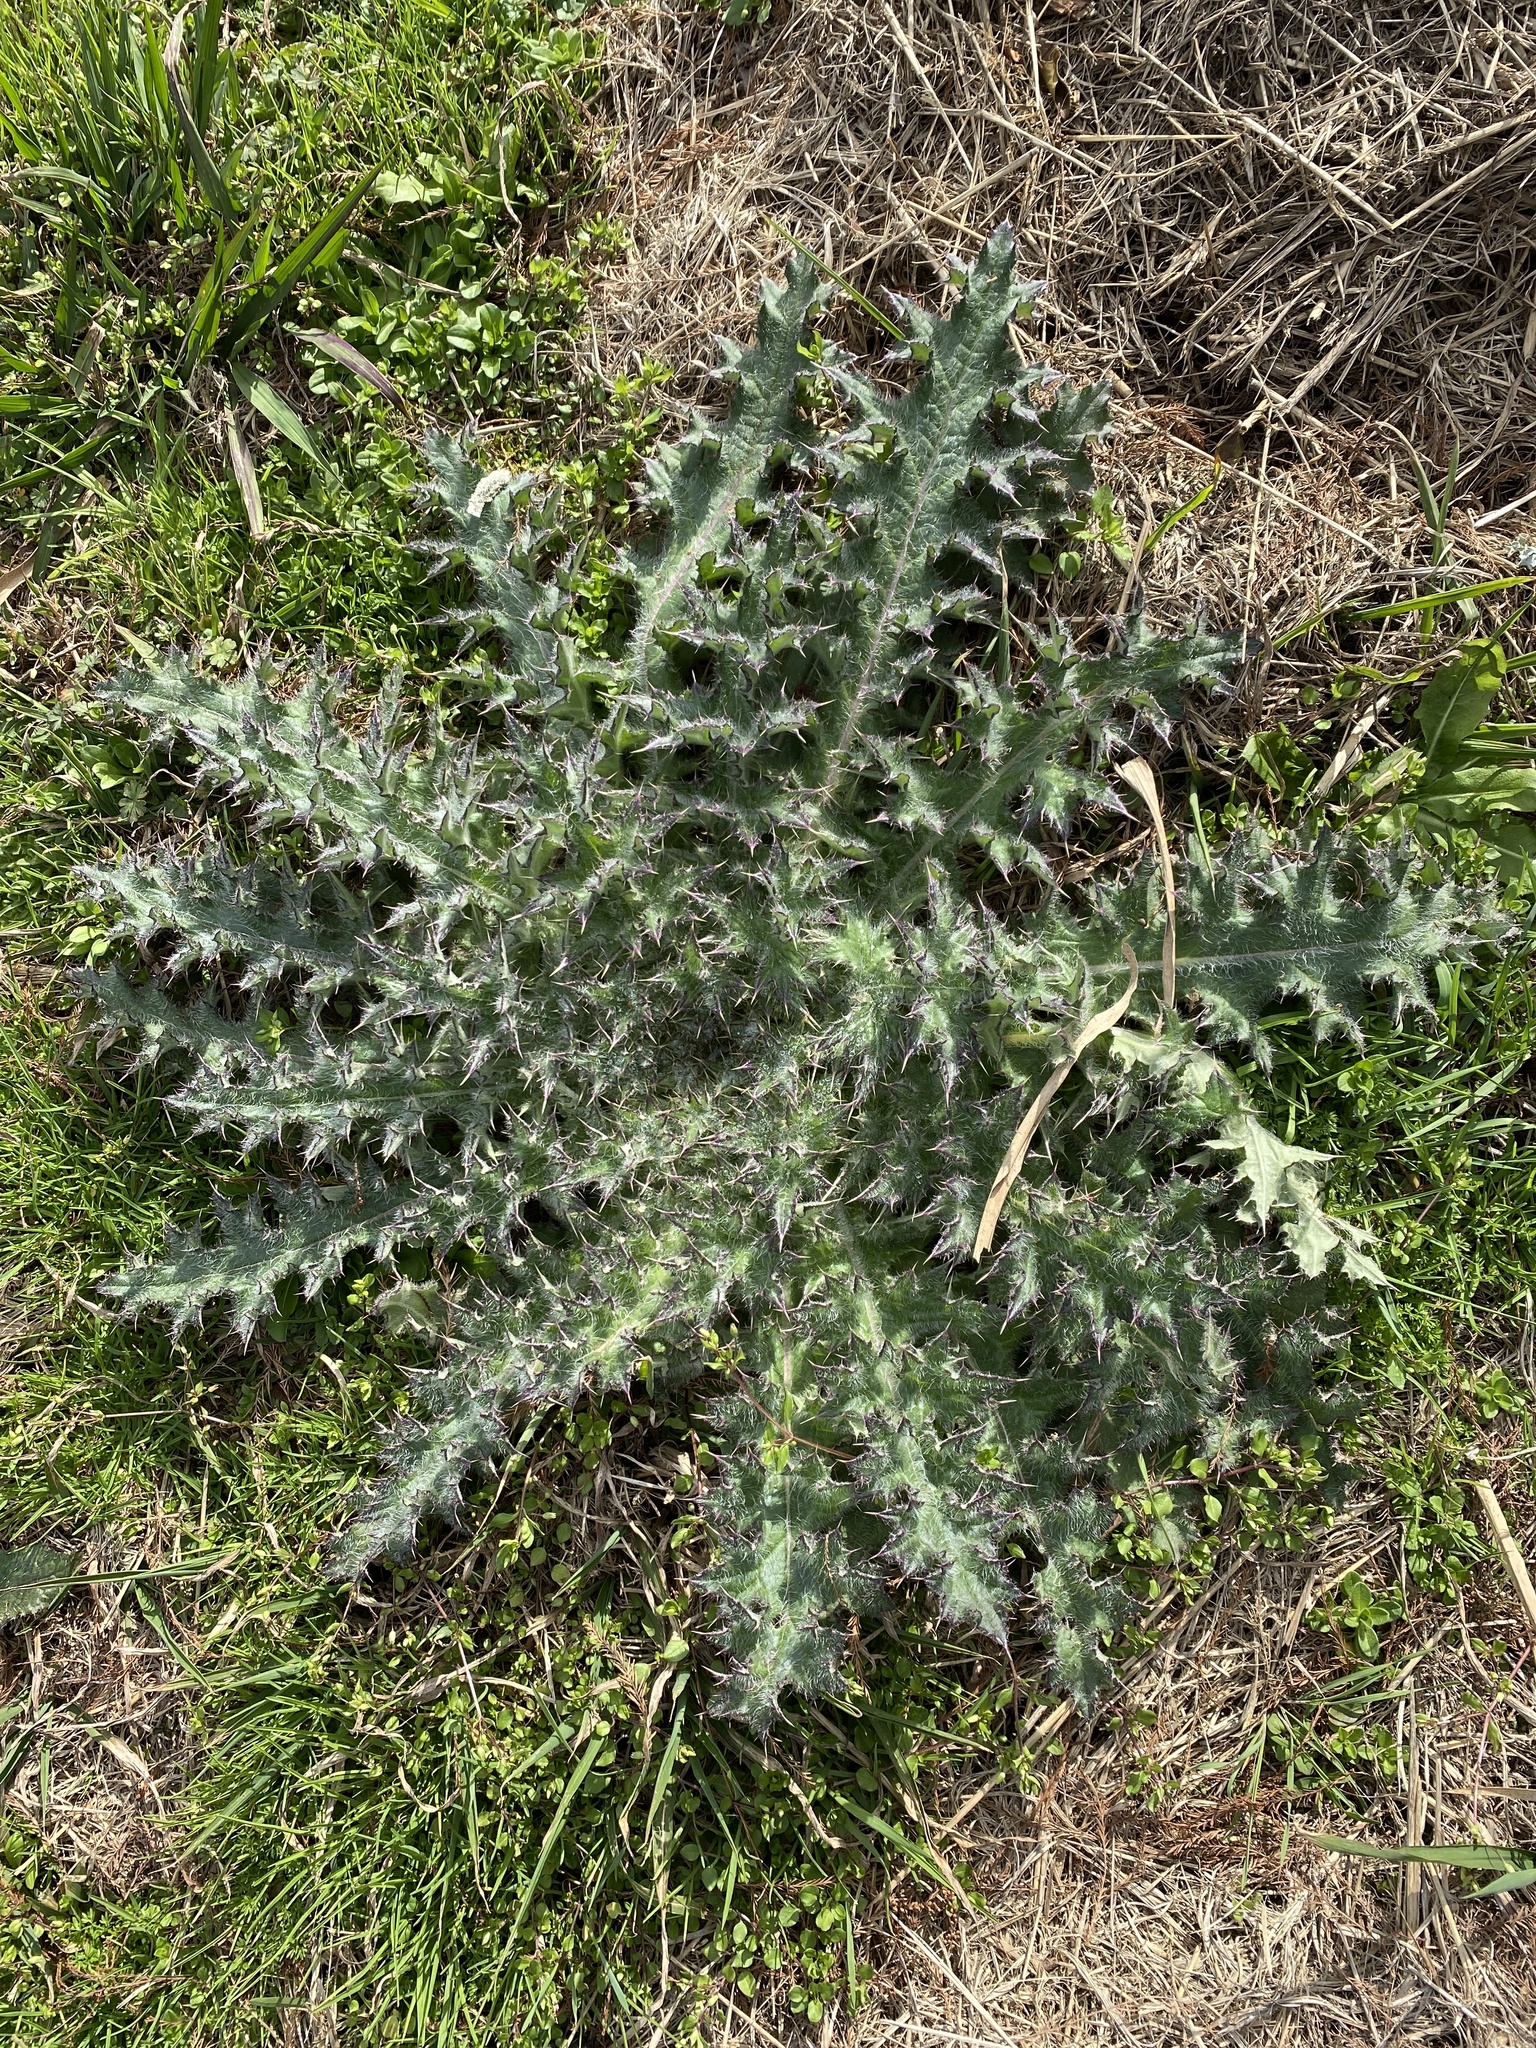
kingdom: Plantae
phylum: Tracheophyta
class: Magnoliopsida
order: Asterales
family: Asteraceae
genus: Cirsium
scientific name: Cirsium horridulum
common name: Bristly thistle
